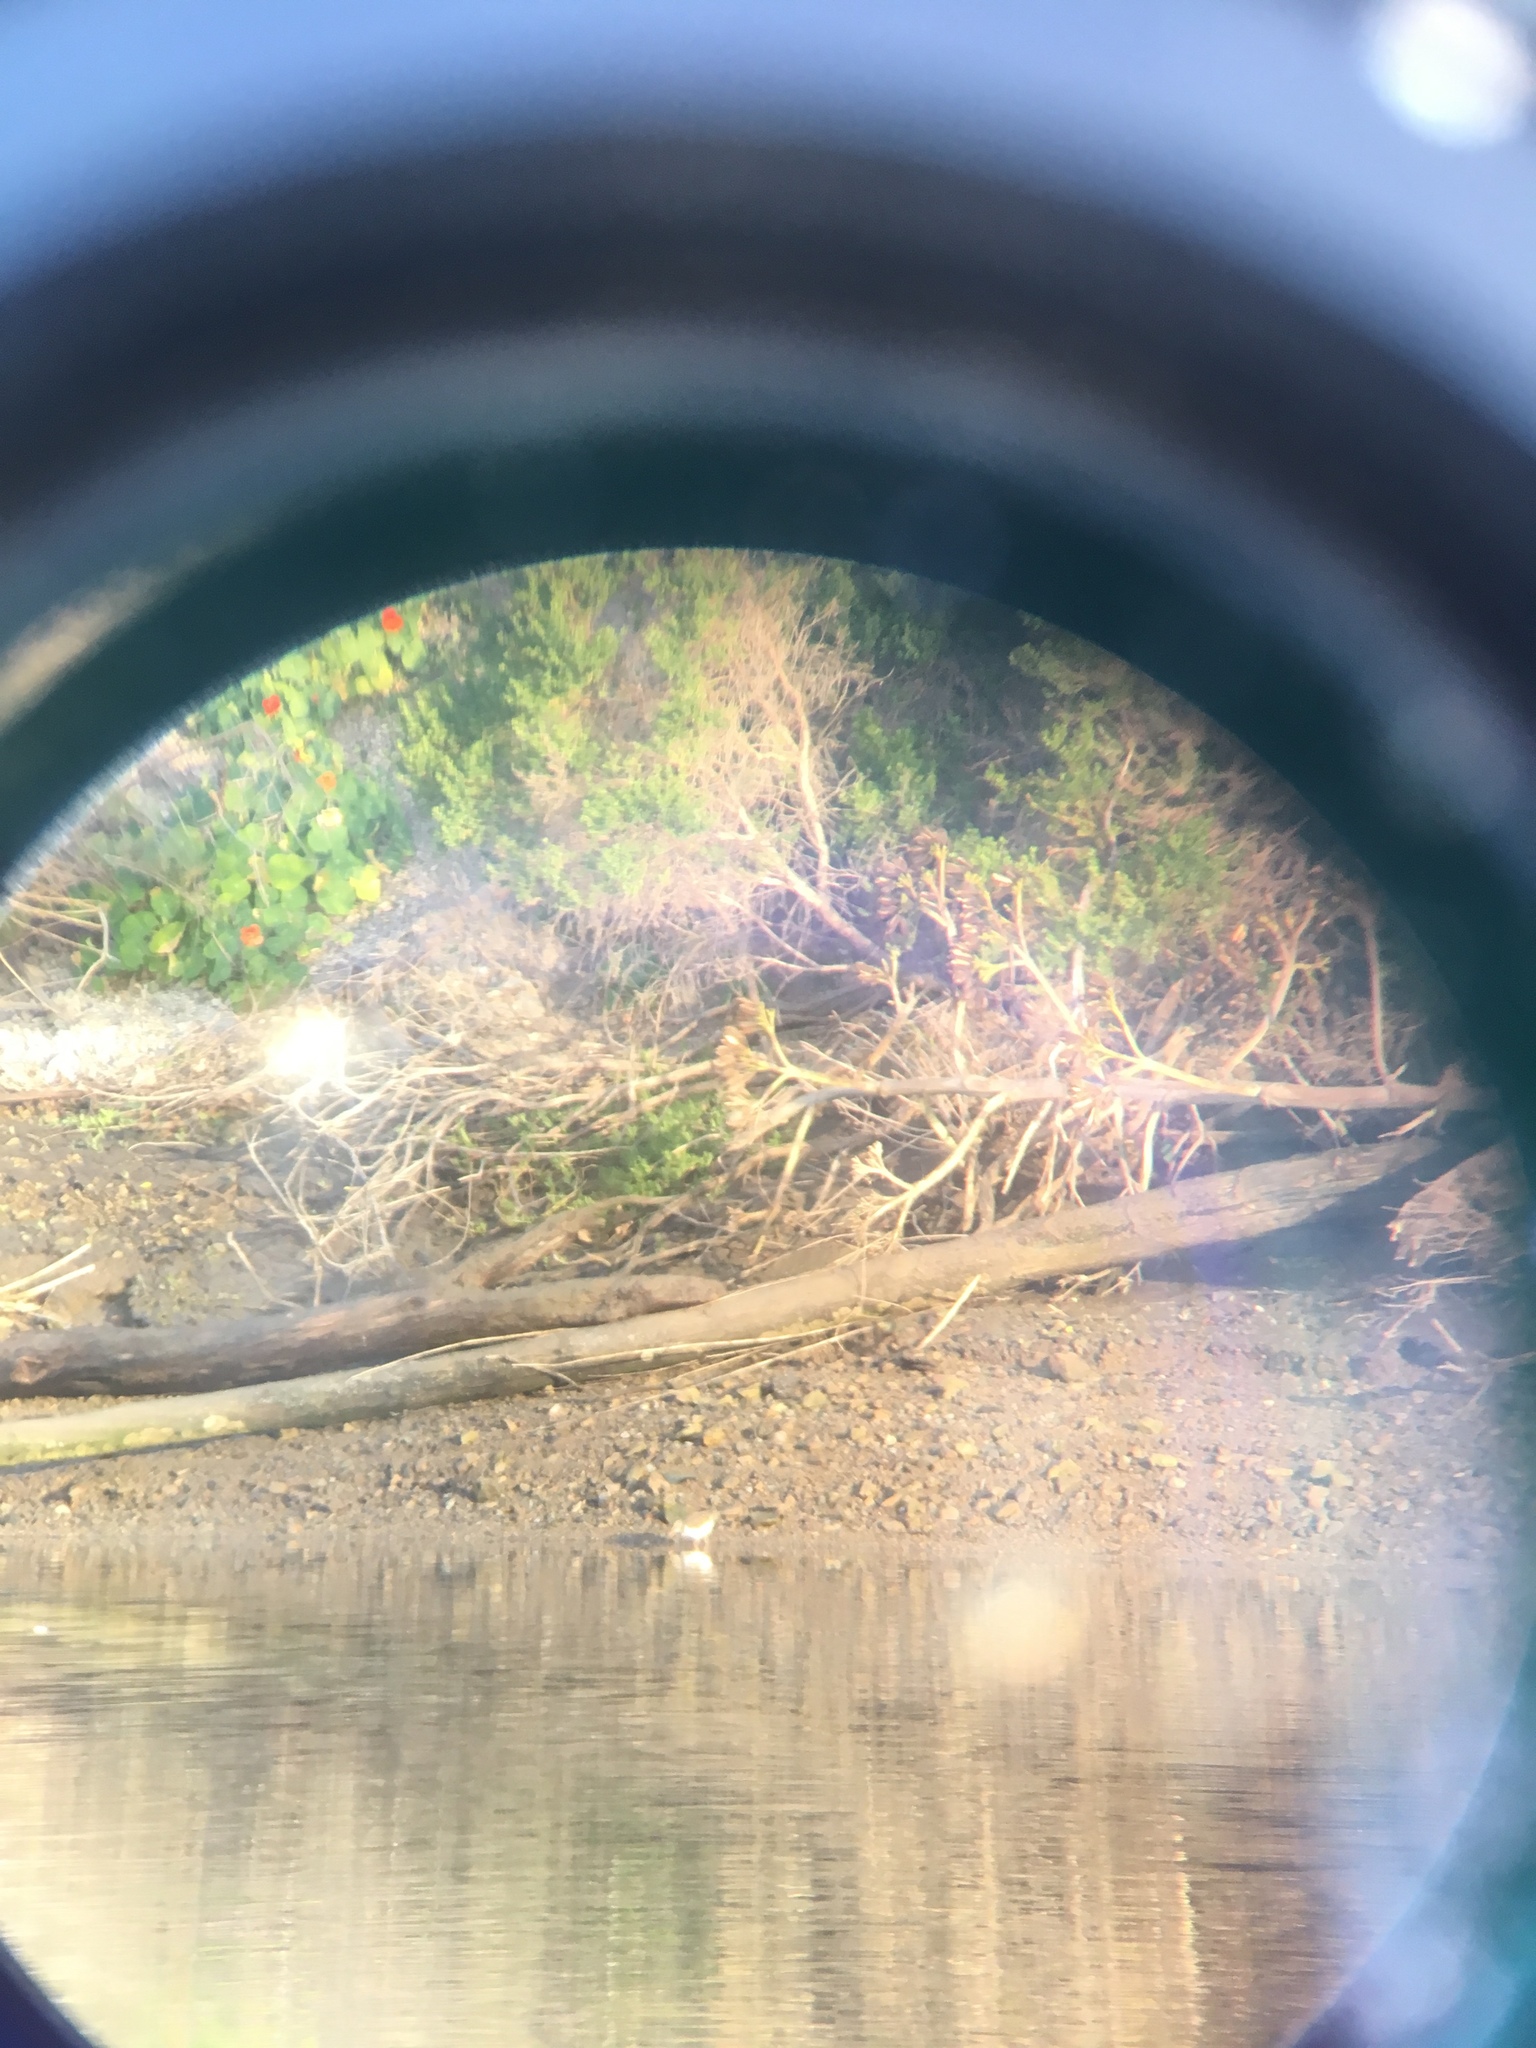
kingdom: Animalia
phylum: Chordata
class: Aves
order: Charadriiformes
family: Scolopacidae
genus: Actitis
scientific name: Actitis macularius
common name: Spotted sandpiper
